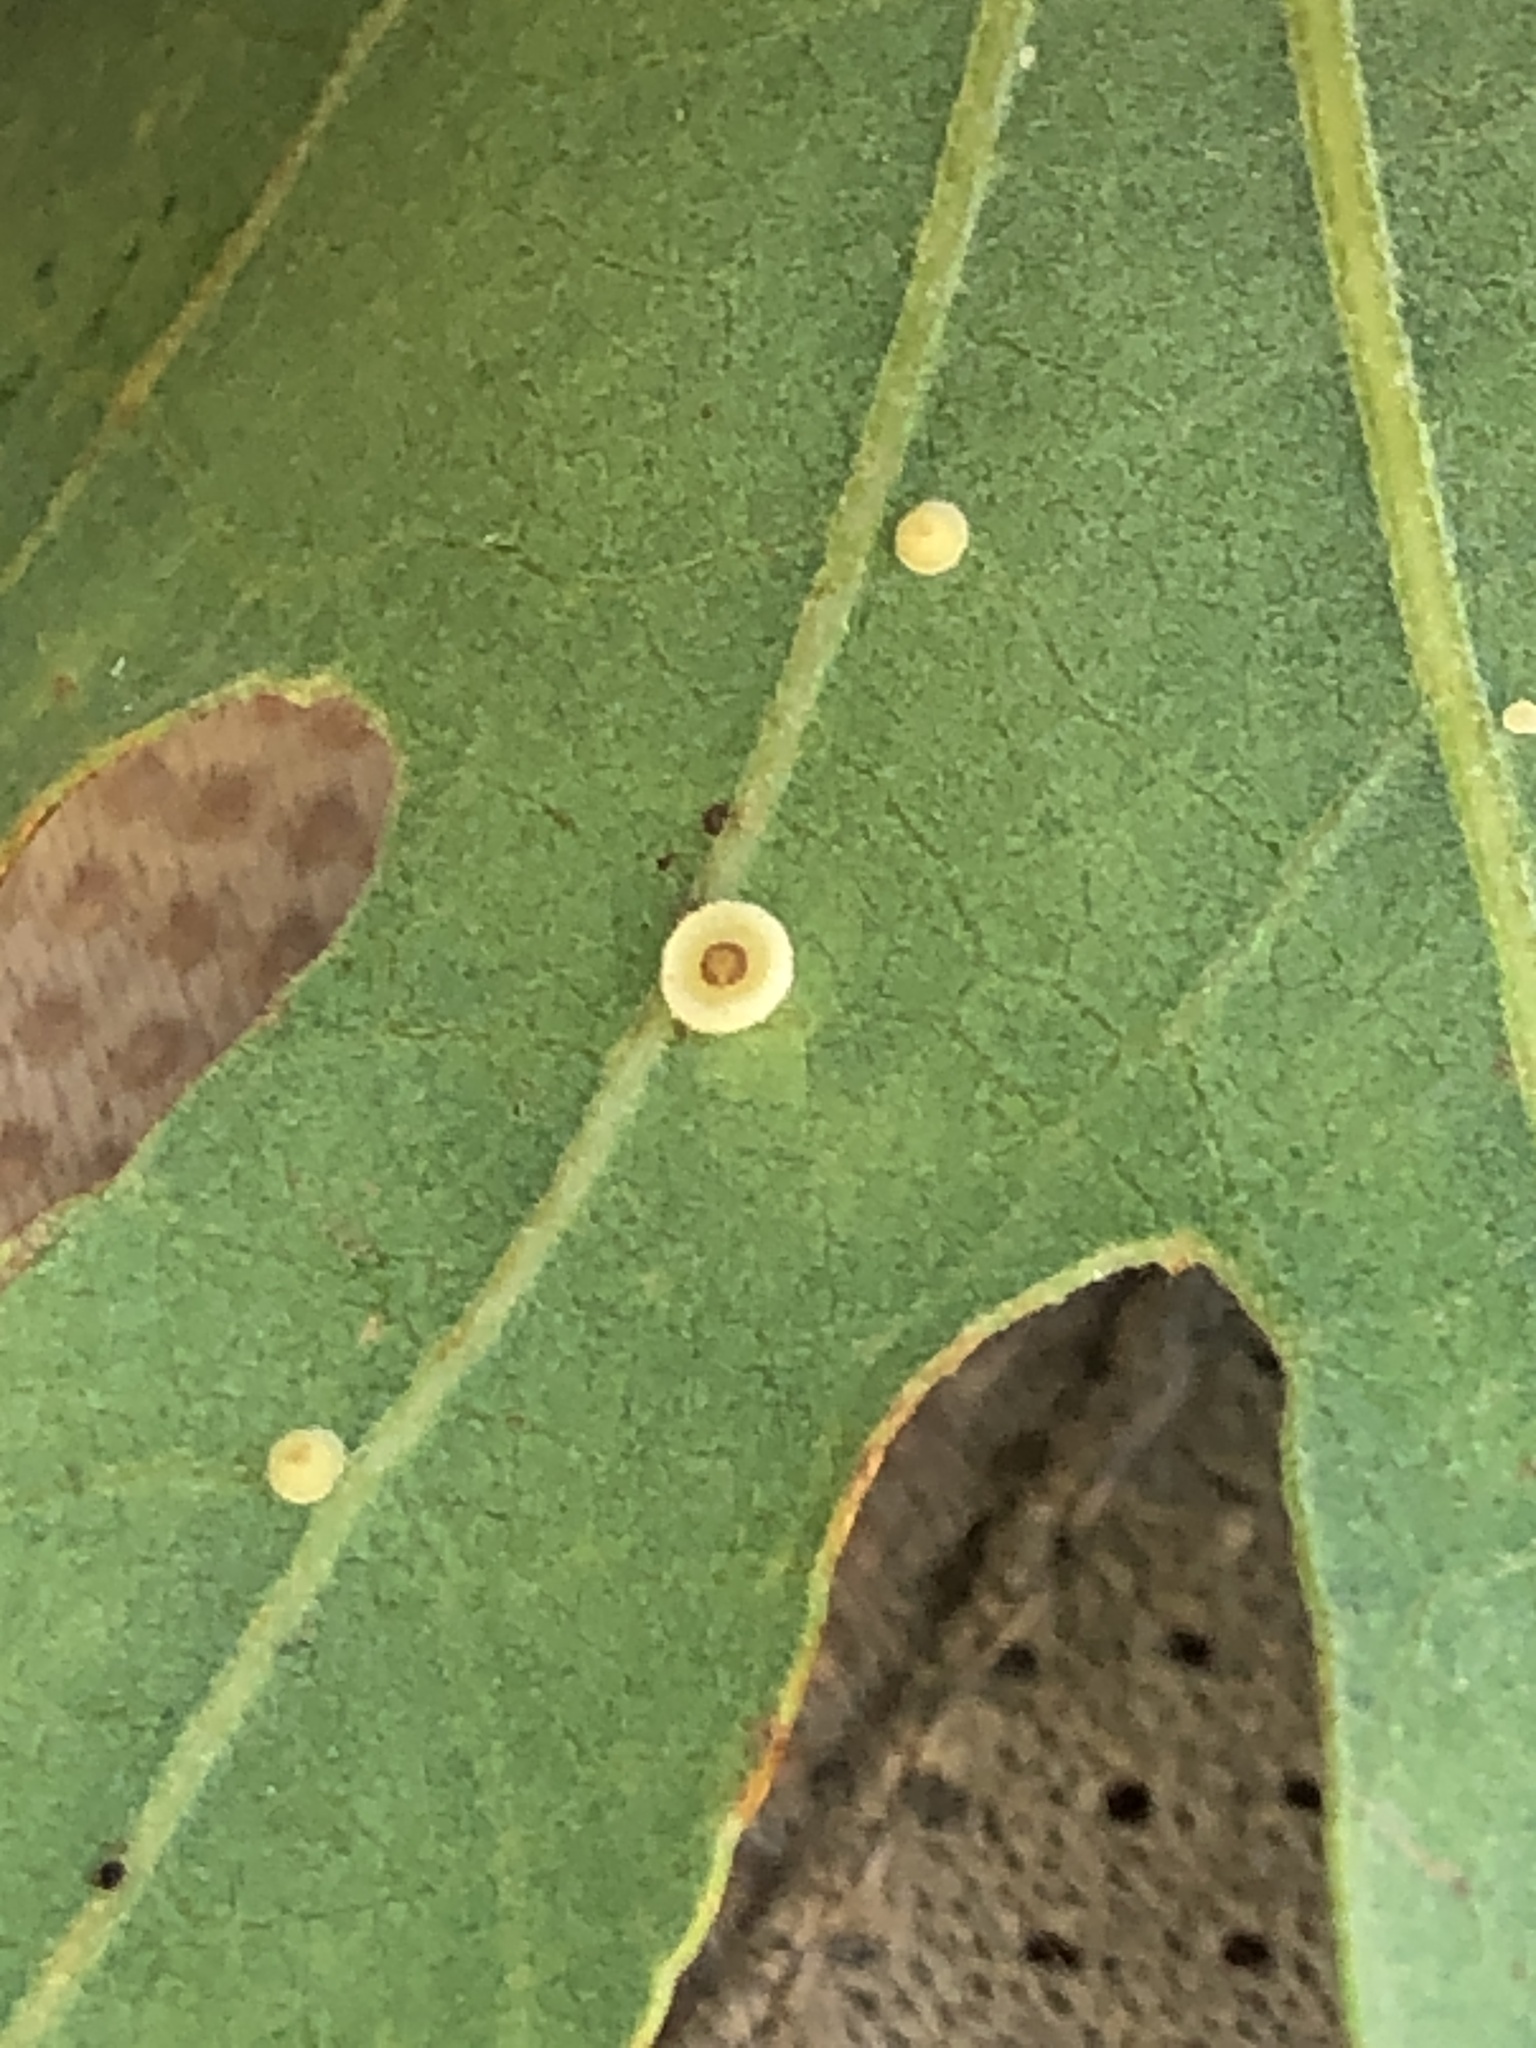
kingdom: Animalia
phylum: Arthropoda
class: Insecta
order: Hymenoptera
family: Cynipidae
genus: Andricus
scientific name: Andricus
